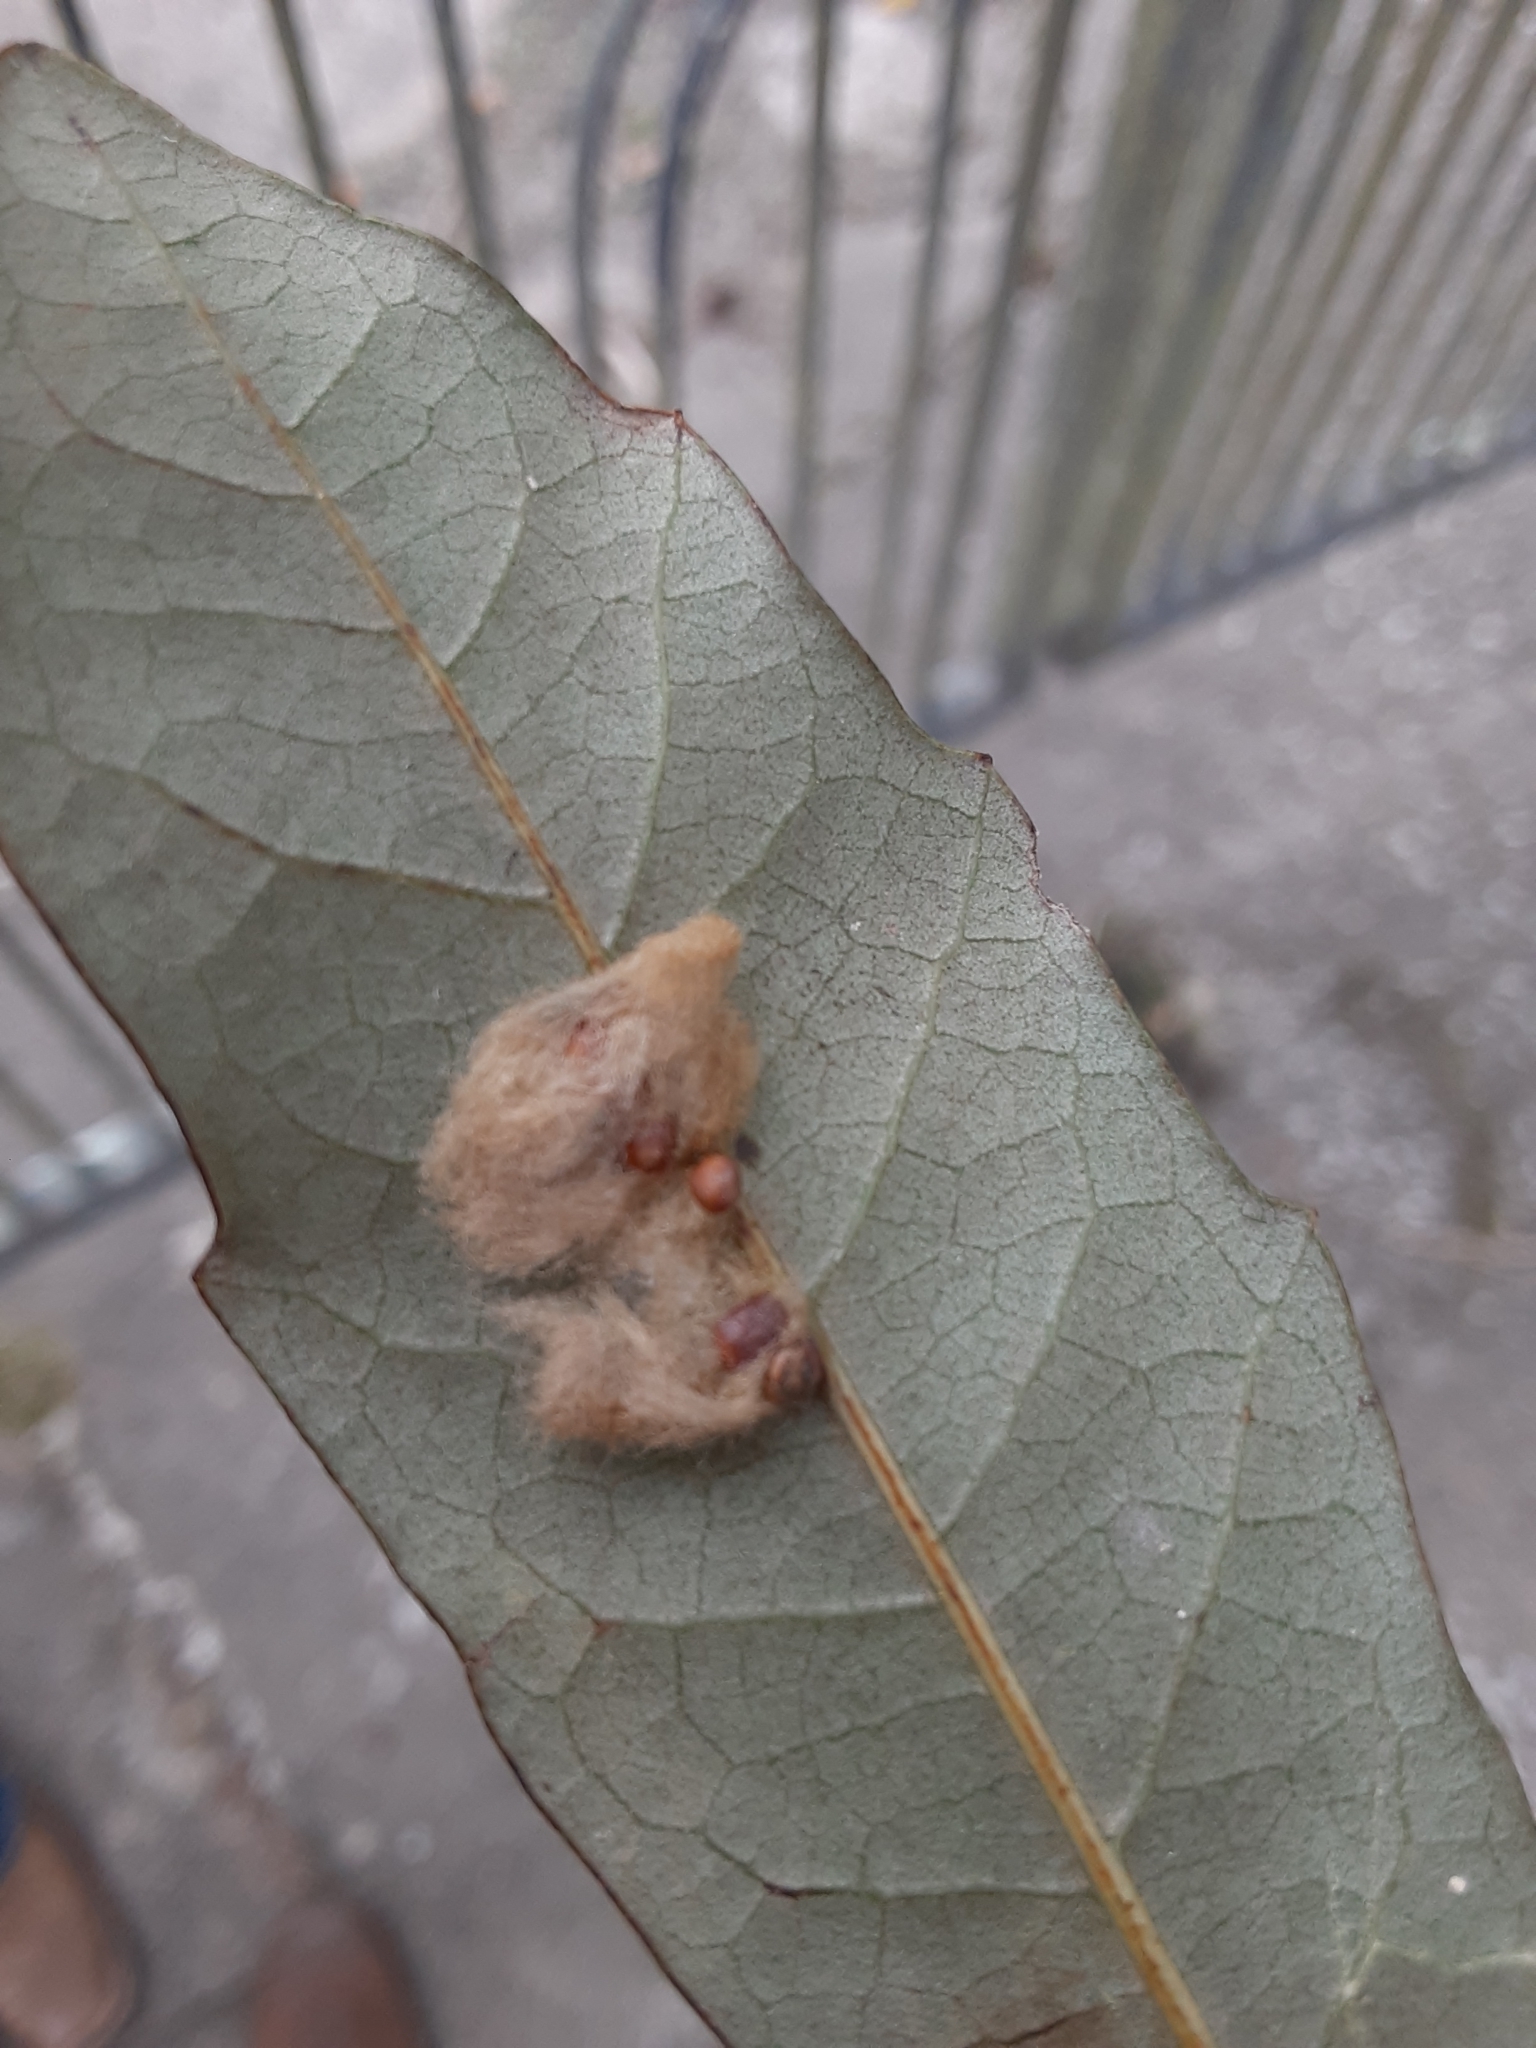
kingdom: Animalia
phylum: Arthropoda
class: Insecta
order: Hymenoptera
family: Cynipidae
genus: Andricus
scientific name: Andricus Druon quercuslanigerum
